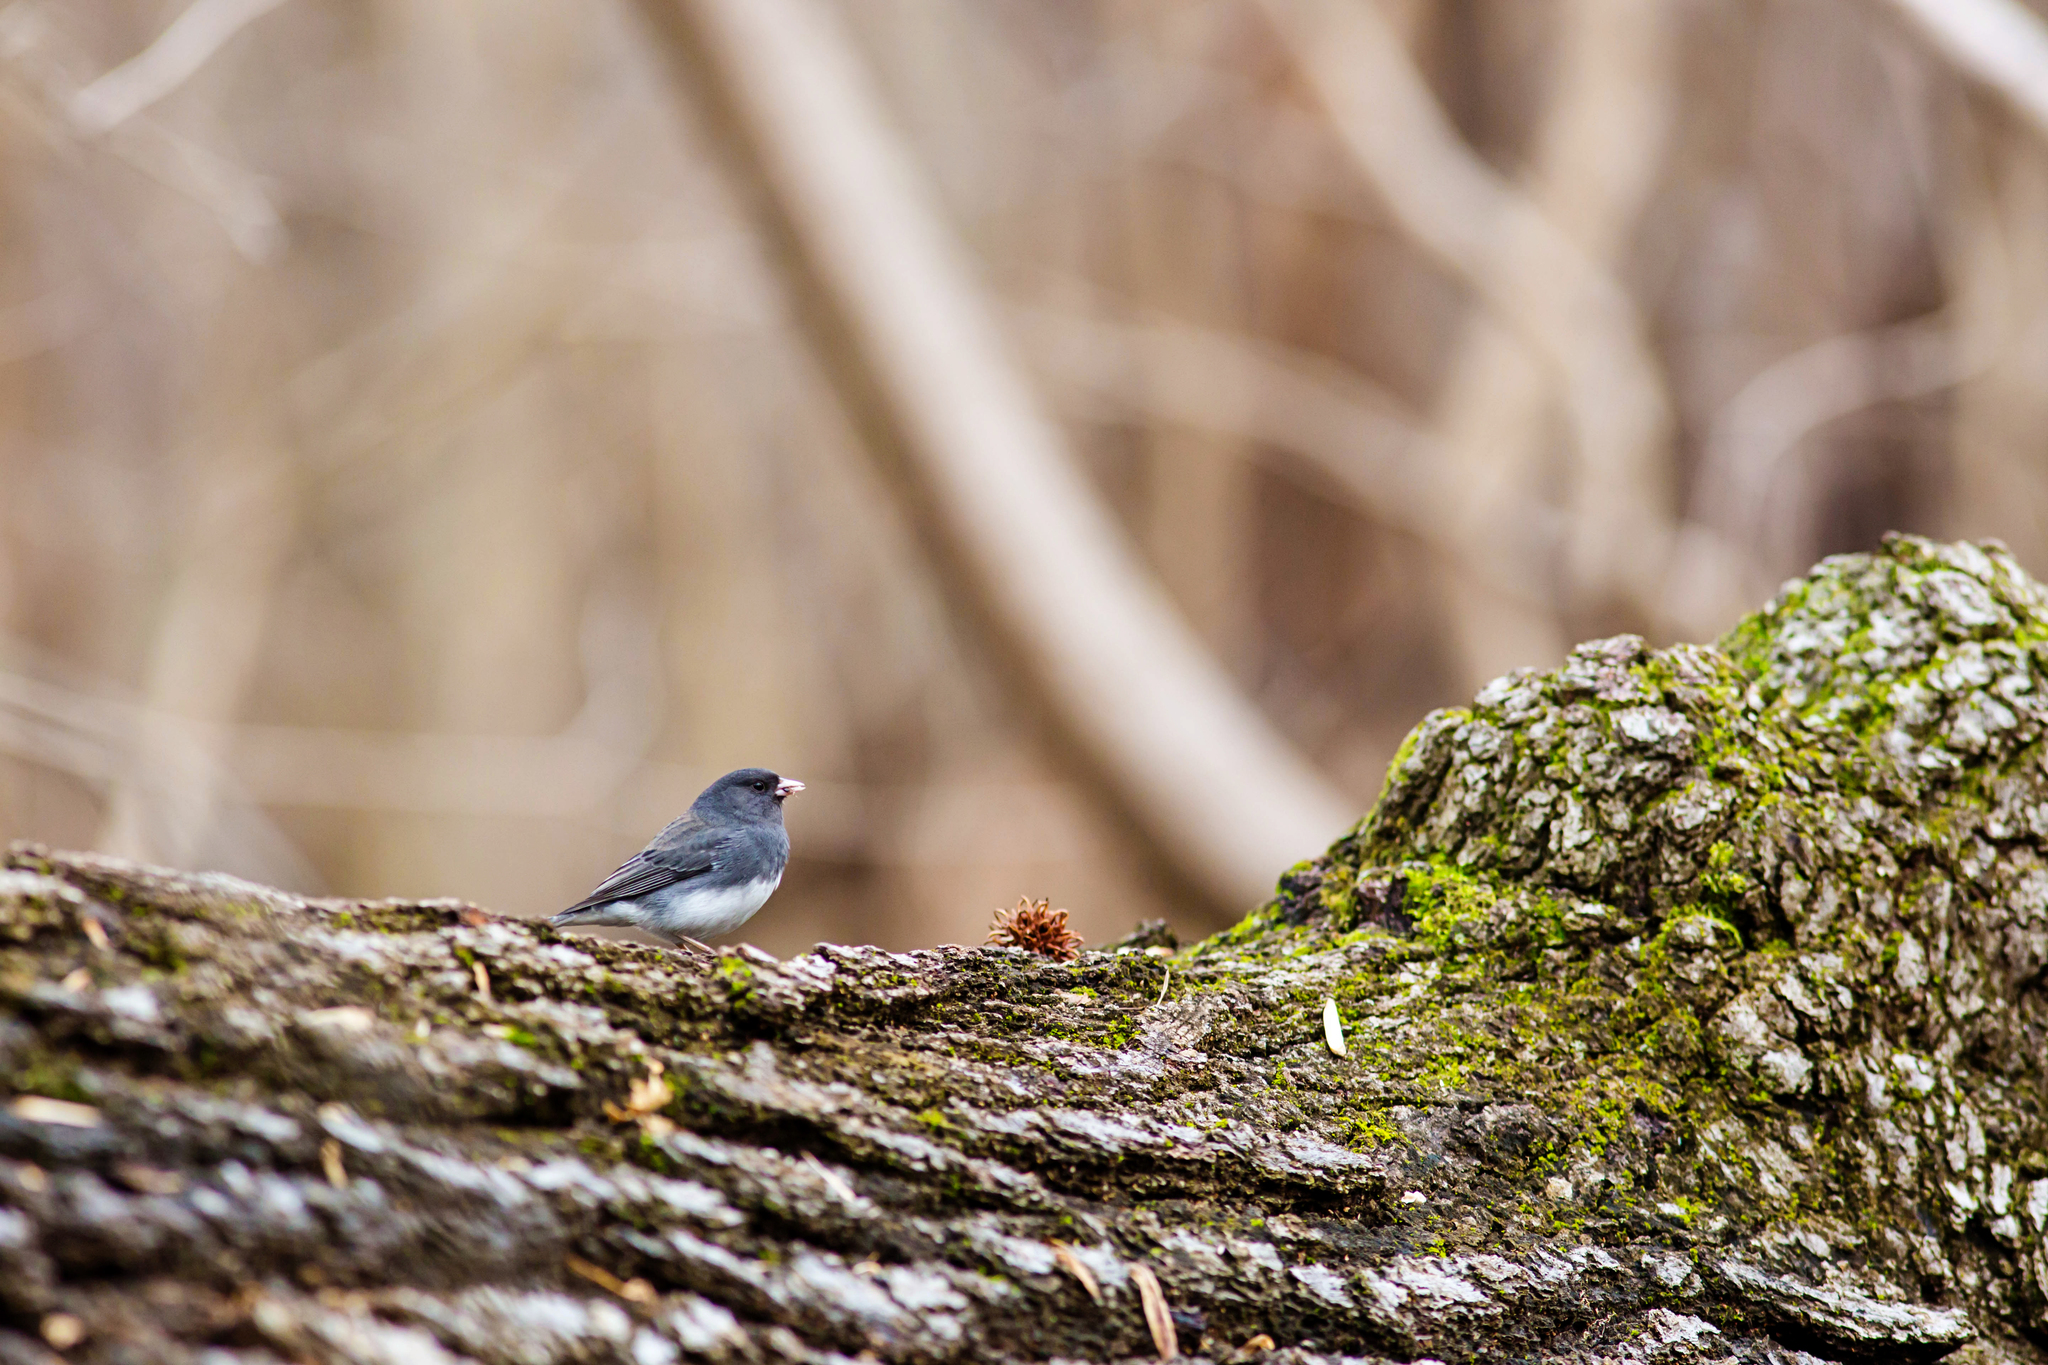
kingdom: Animalia
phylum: Chordata
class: Aves
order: Passeriformes
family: Passerellidae
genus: Junco
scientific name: Junco hyemalis
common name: Dark-eyed junco
